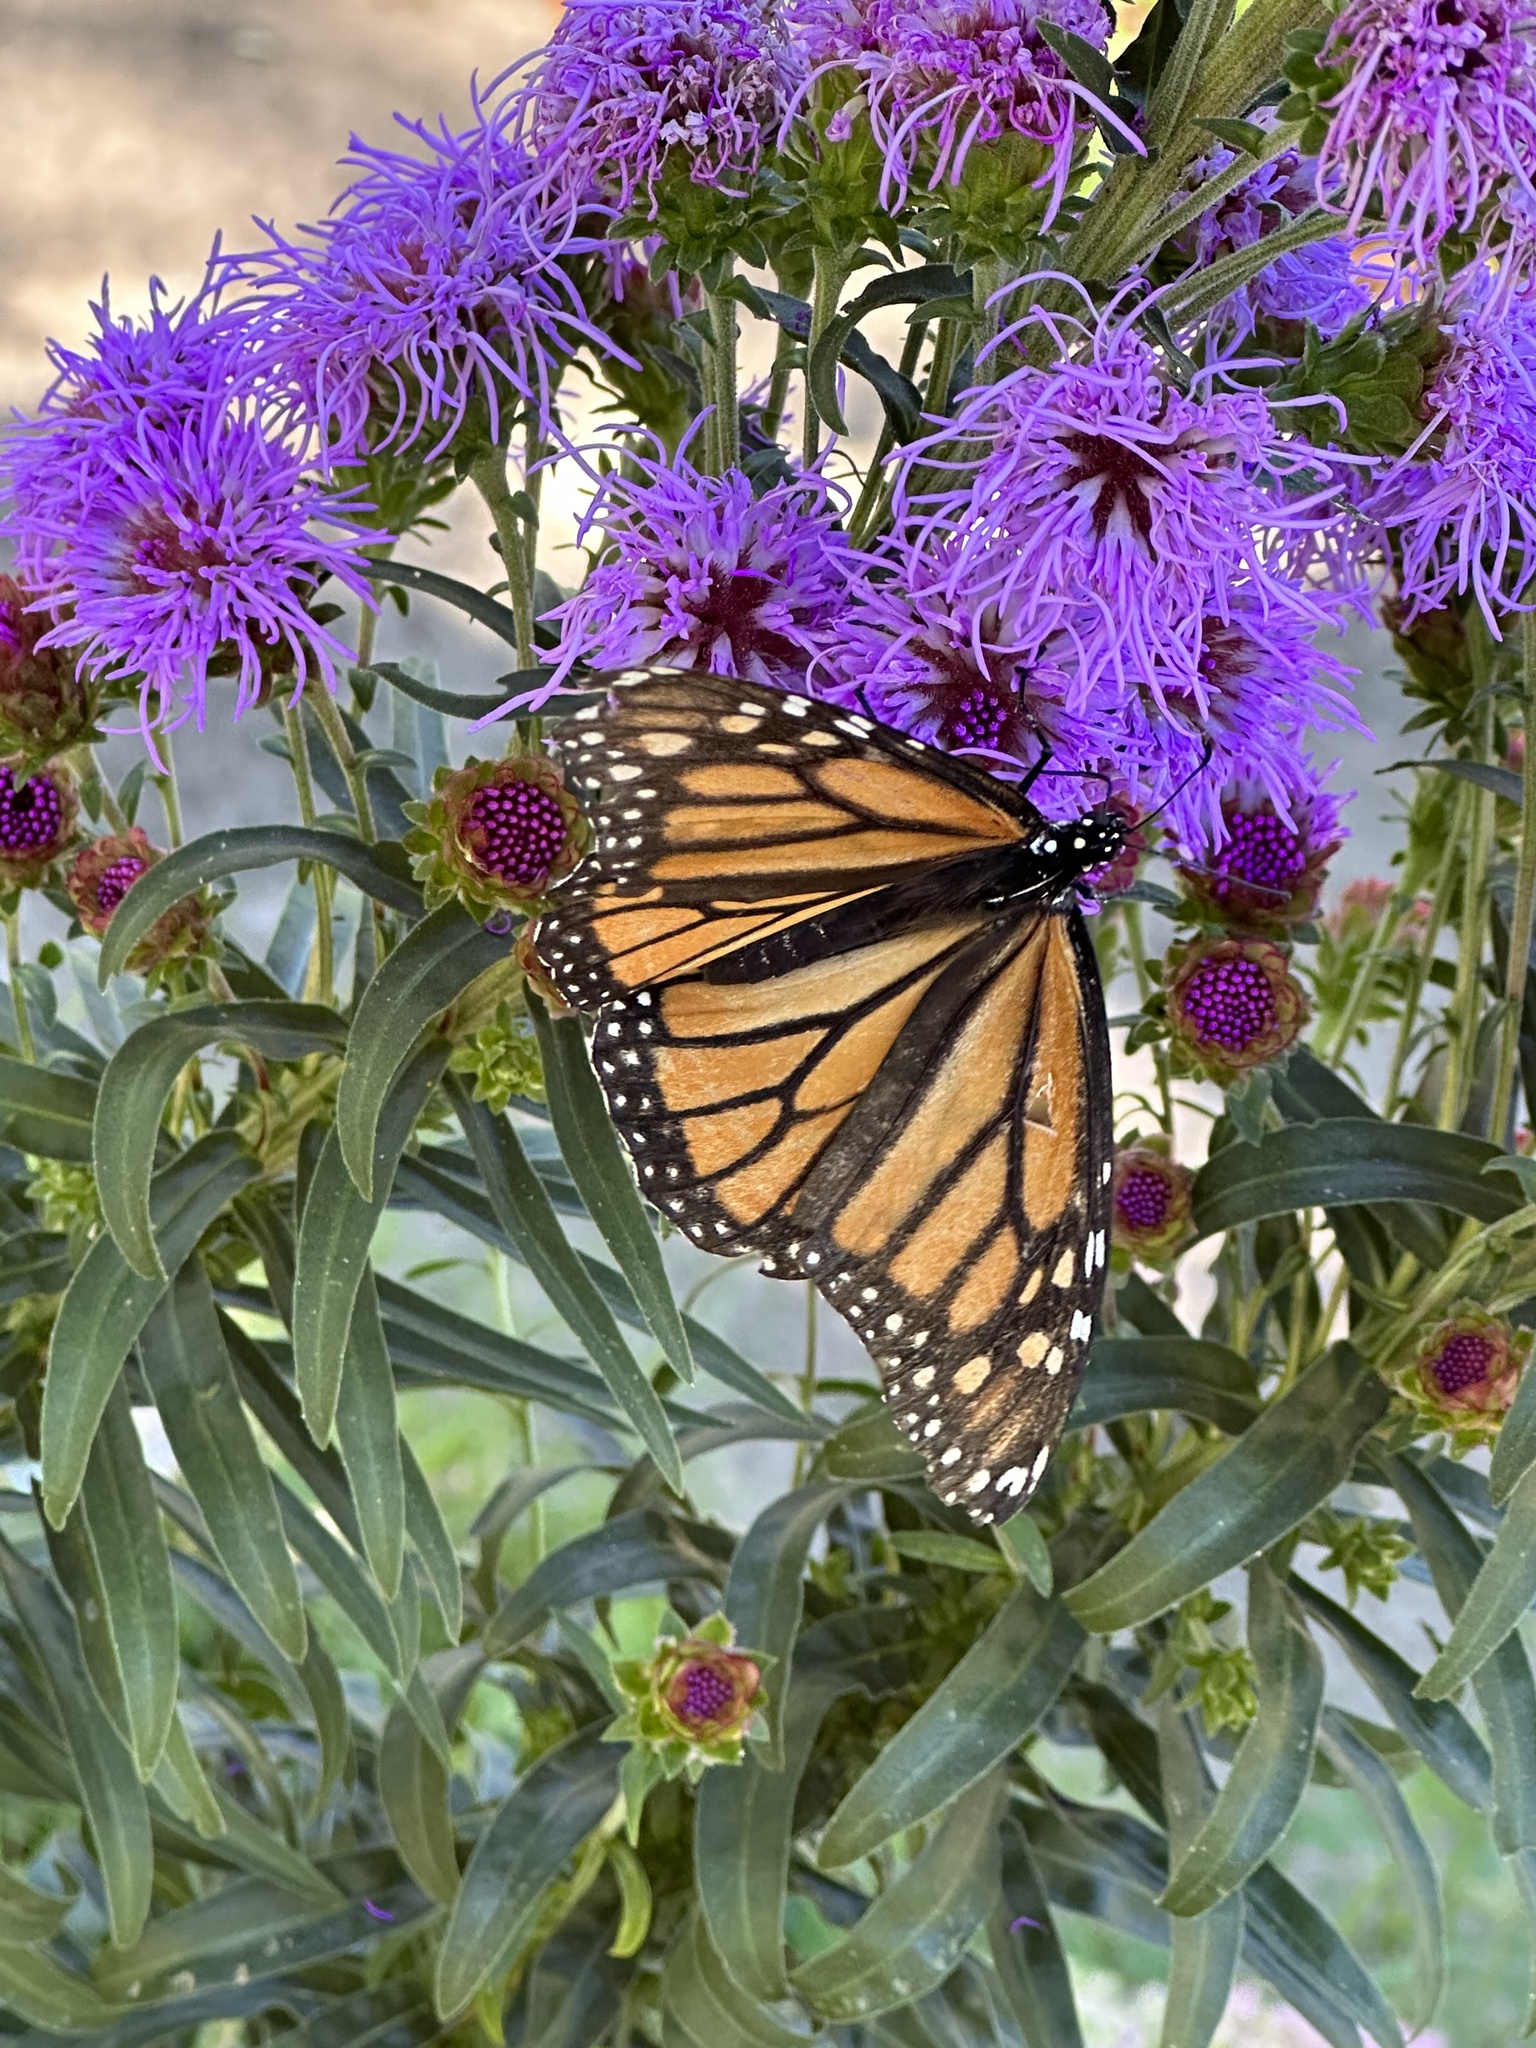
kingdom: Animalia
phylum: Arthropoda
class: Insecta
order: Lepidoptera
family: Nymphalidae
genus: Danaus
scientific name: Danaus plexippus
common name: Monarch
